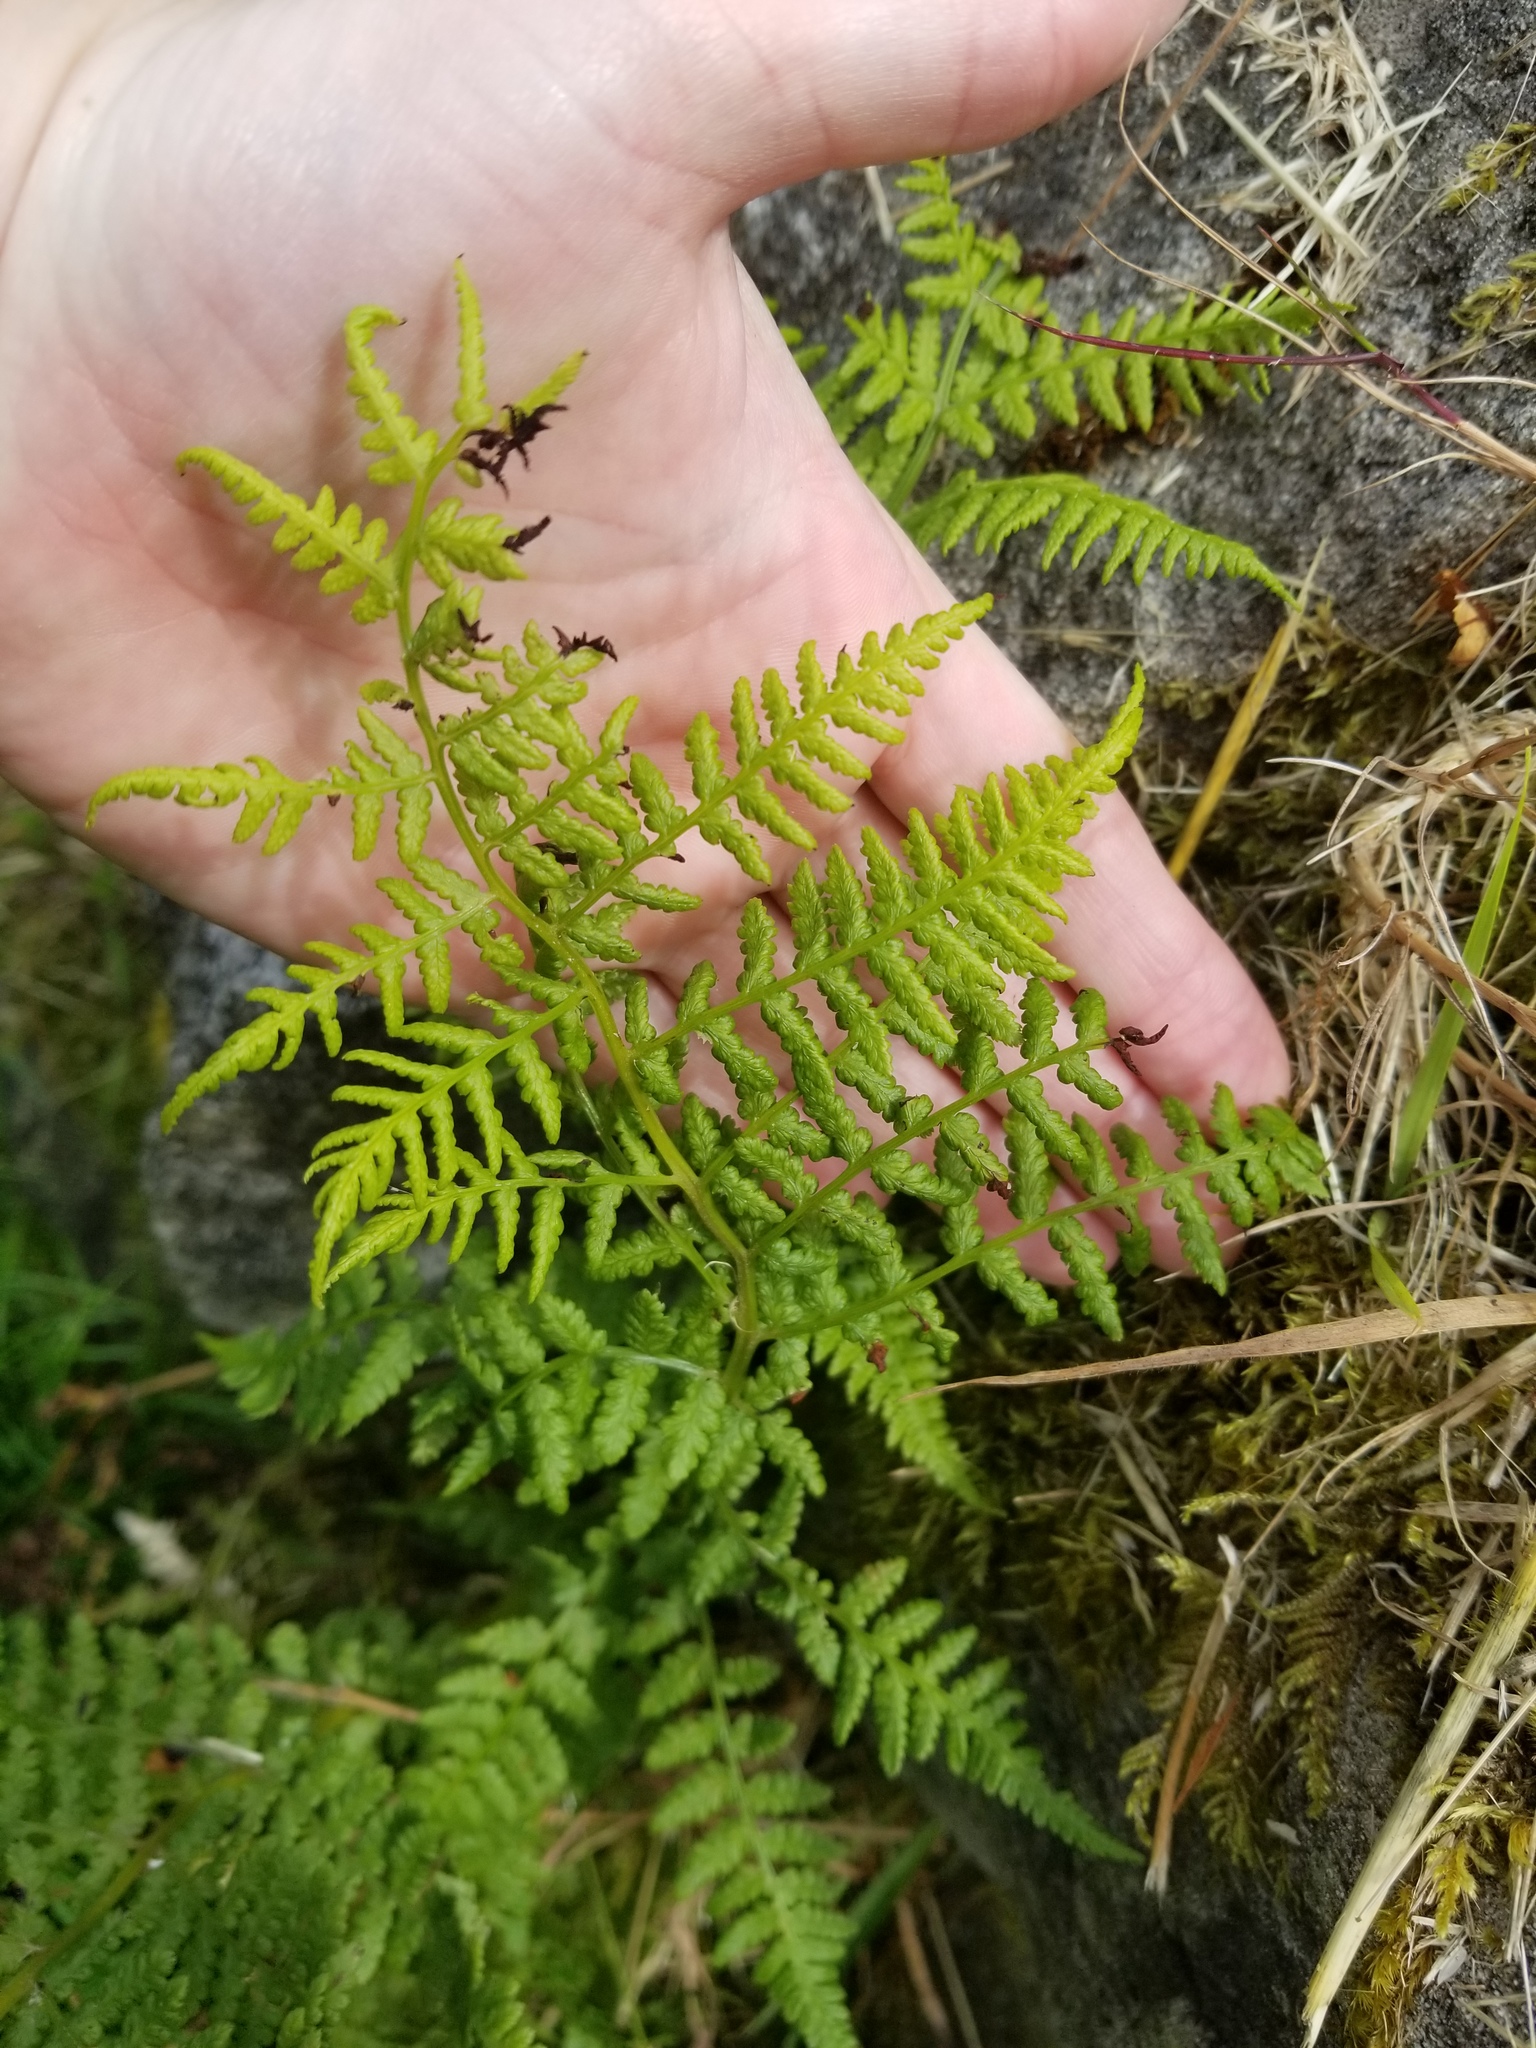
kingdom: Plantae
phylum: Tracheophyta
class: Polypodiopsida
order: Polypodiales
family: Athyriaceae
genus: Athyrium
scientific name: Athyrium filix-femina
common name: Lady fern
